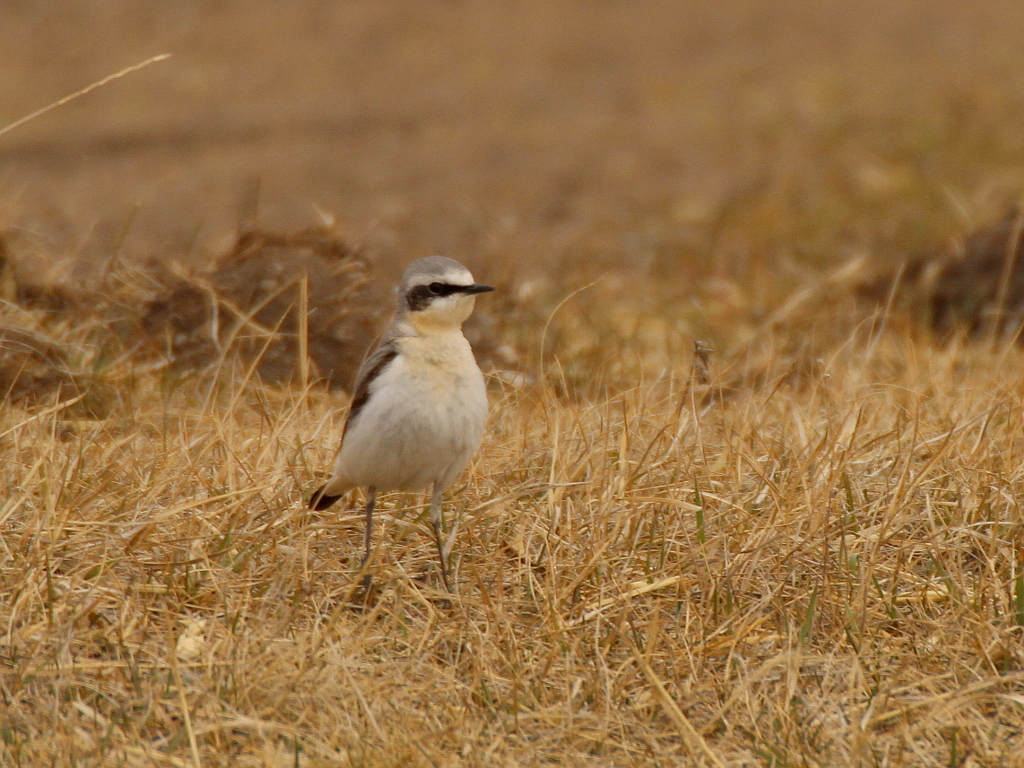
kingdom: Animalia
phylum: Chordata
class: Aves
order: Passeriformes
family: Muscicapidae
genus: Oenanthe
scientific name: Oenanthe oenanthe
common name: Northern wheatear
